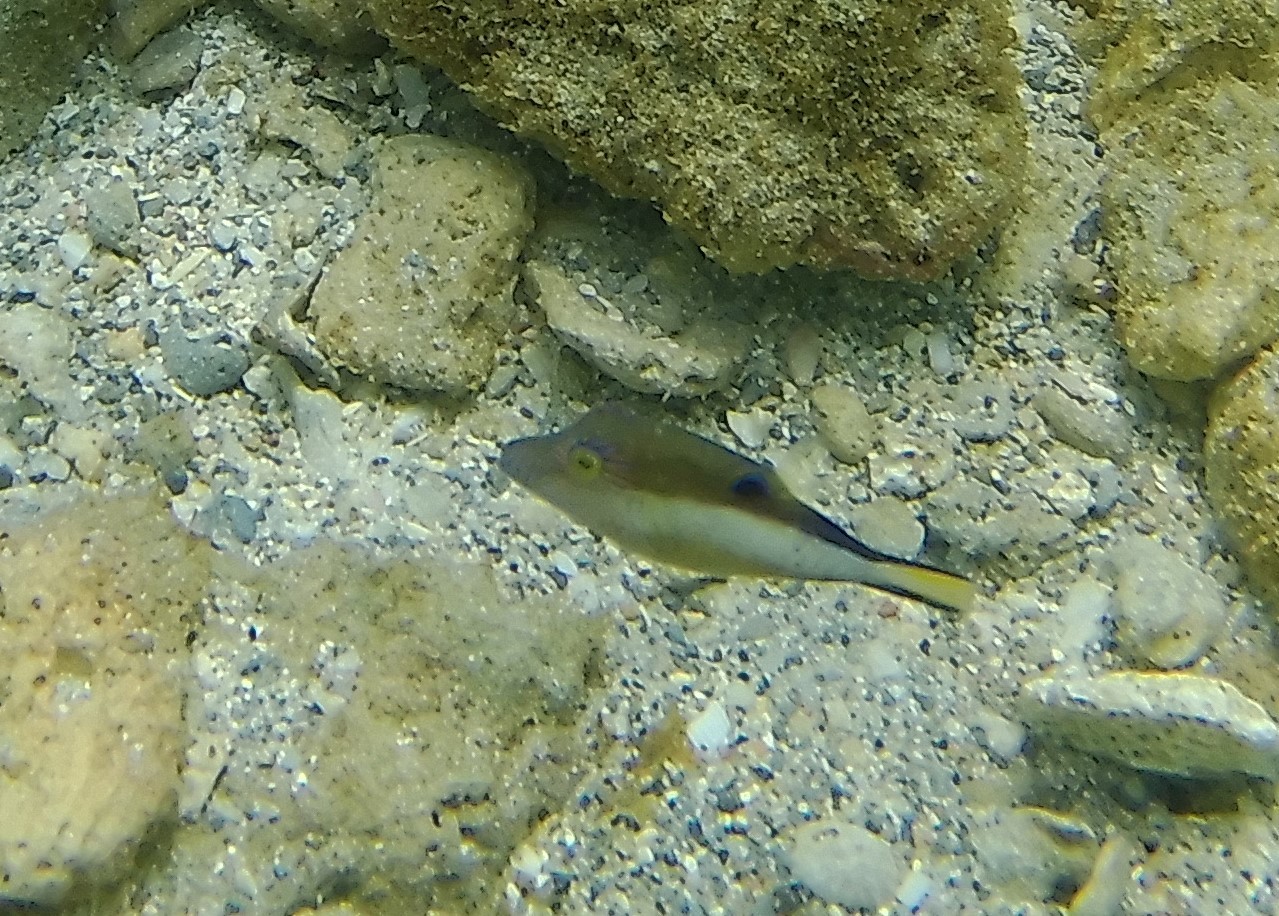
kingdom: Animalia
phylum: Chordata
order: Tetraodontiformes
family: Tetraodontidae
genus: Canthigaster
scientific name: Canthigaster rostrata
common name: Caribbean sharpnose-puffer
